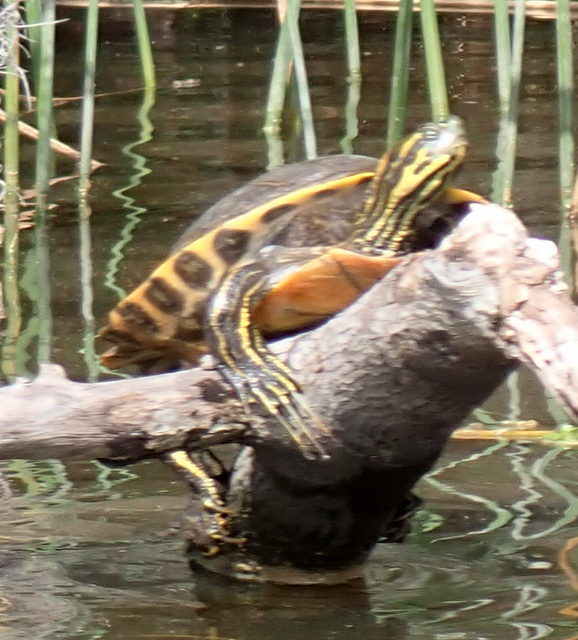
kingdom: Animalia
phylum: Chordata
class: Testudines
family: Emydidae
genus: Pseudemys
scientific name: Pseudemys concinna
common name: Eastern river cooter
